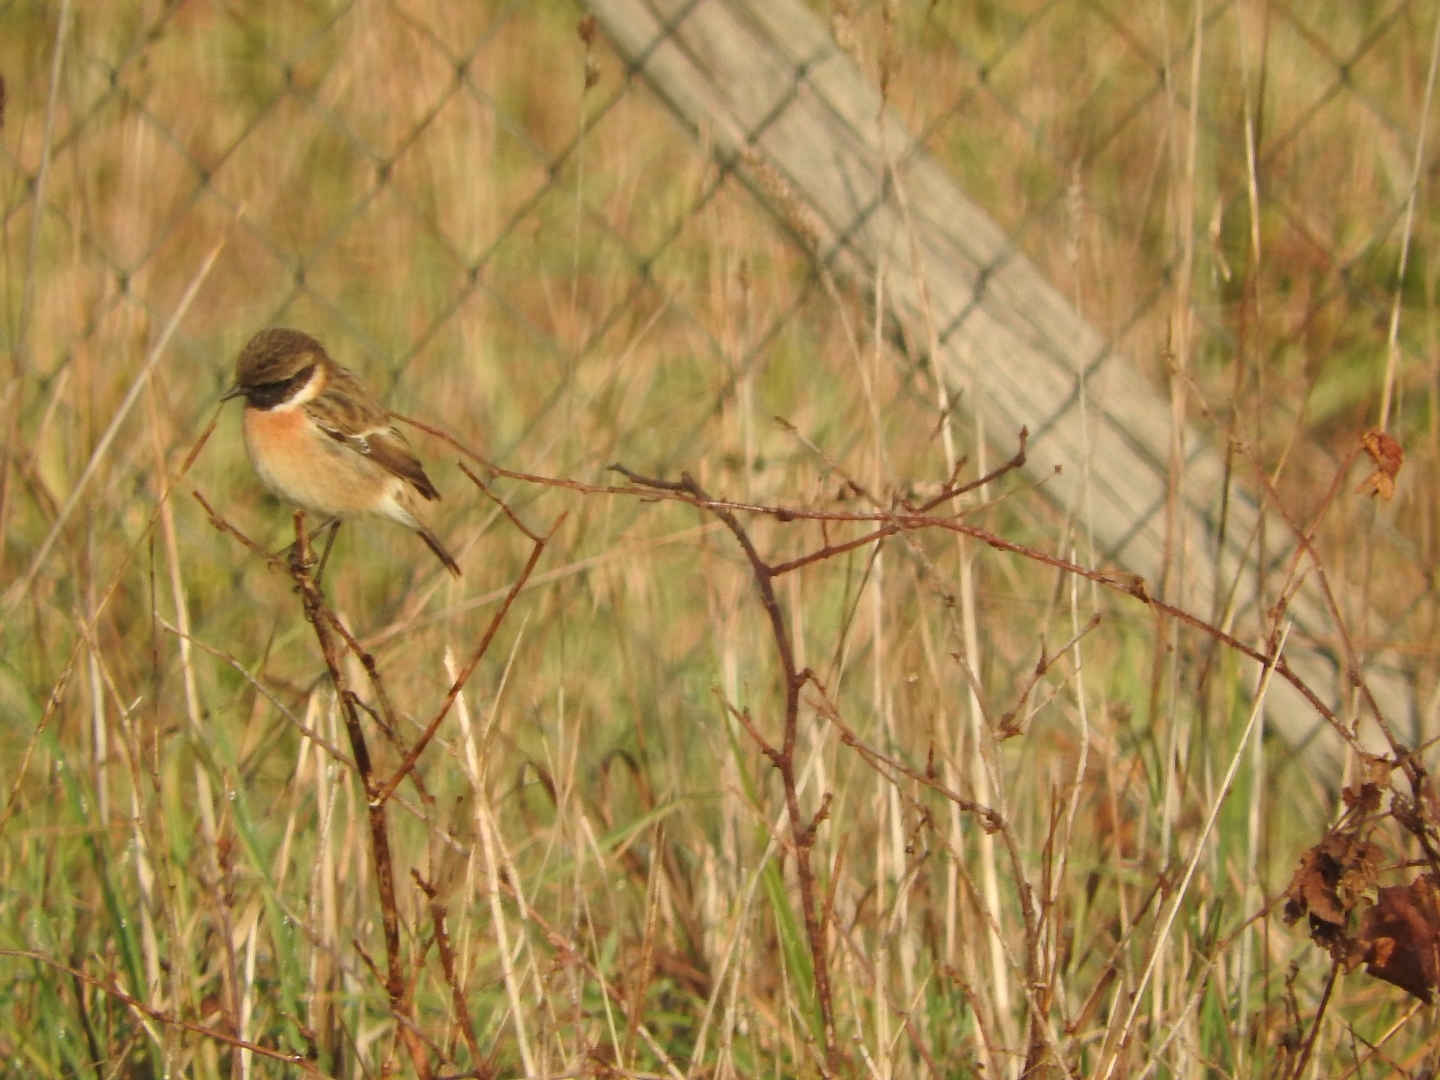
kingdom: Animalia
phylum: Chordata
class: Aves
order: Passeriformes
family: Muscicapidae
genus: Saxicola
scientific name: Saxicola rubicola
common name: European stonechat
